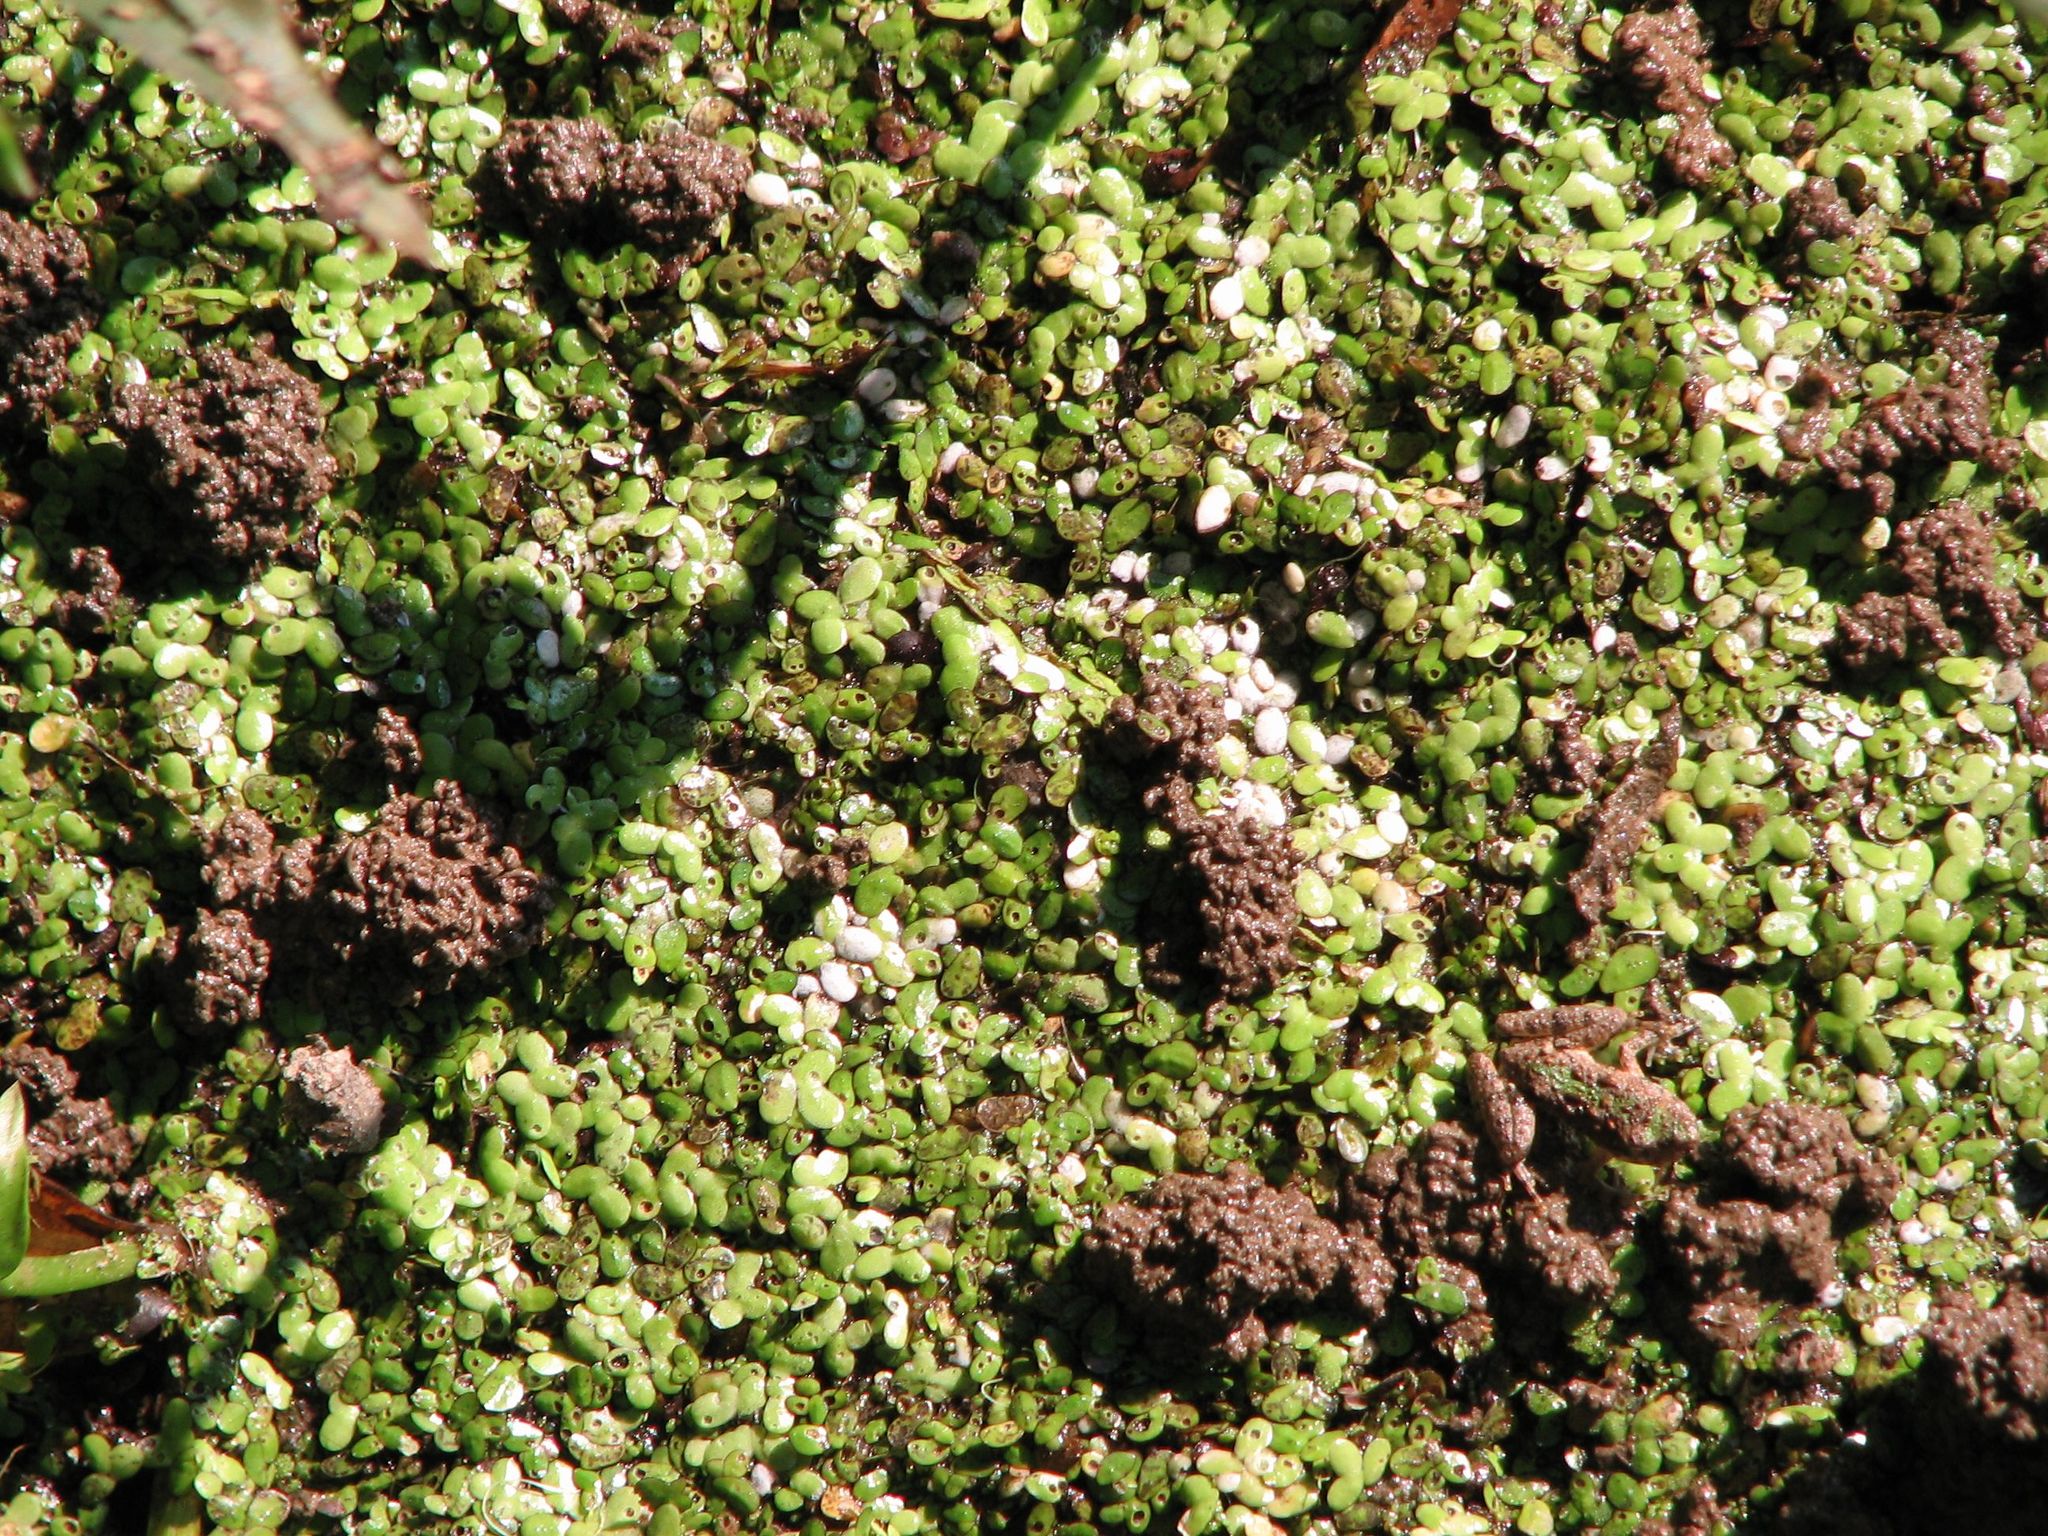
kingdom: Animalia
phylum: Chordata
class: Amphibia
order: Anura
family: Hylidae
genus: Acris
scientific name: Acris crepitans
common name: Northern cricket frog
